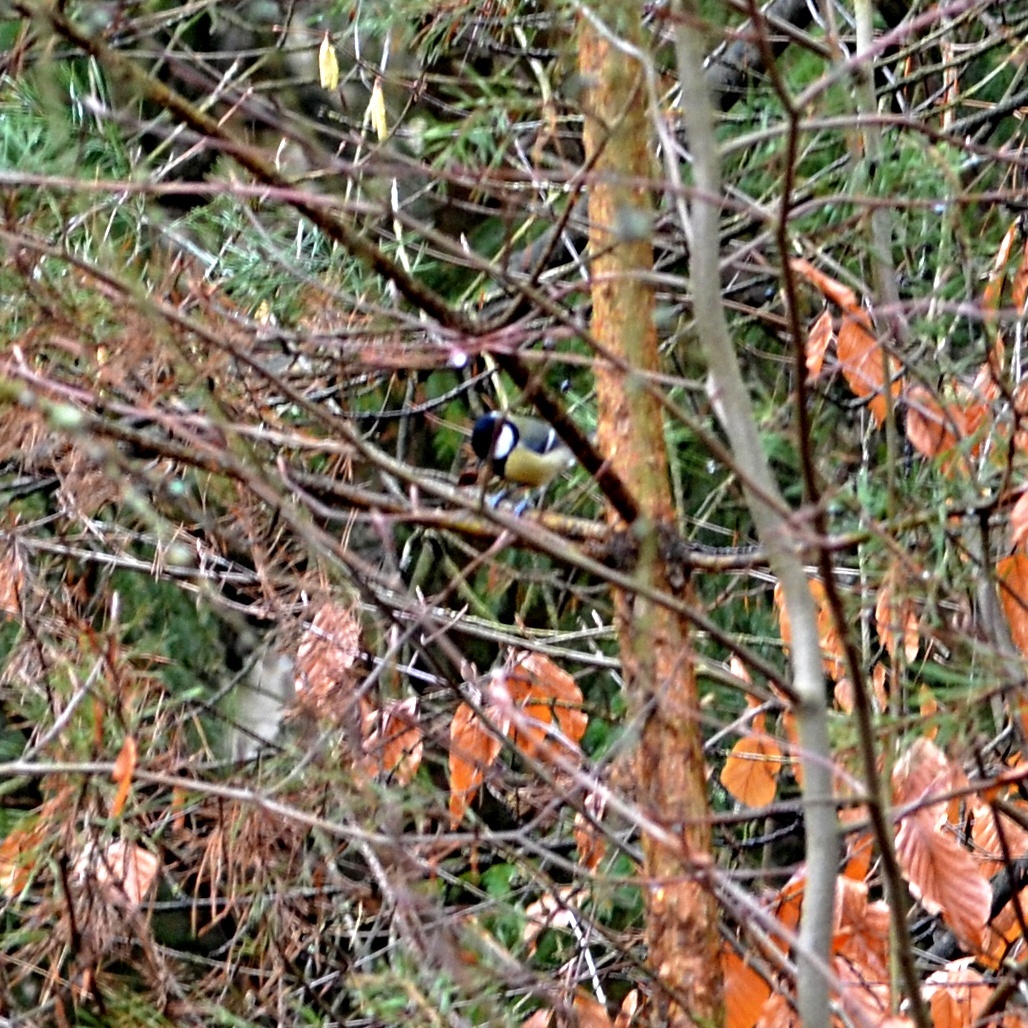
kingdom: Animalia
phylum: Chordata
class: Aves
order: Passeriformes
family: Paridae
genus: Parus
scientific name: Parus major
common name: Great tit
